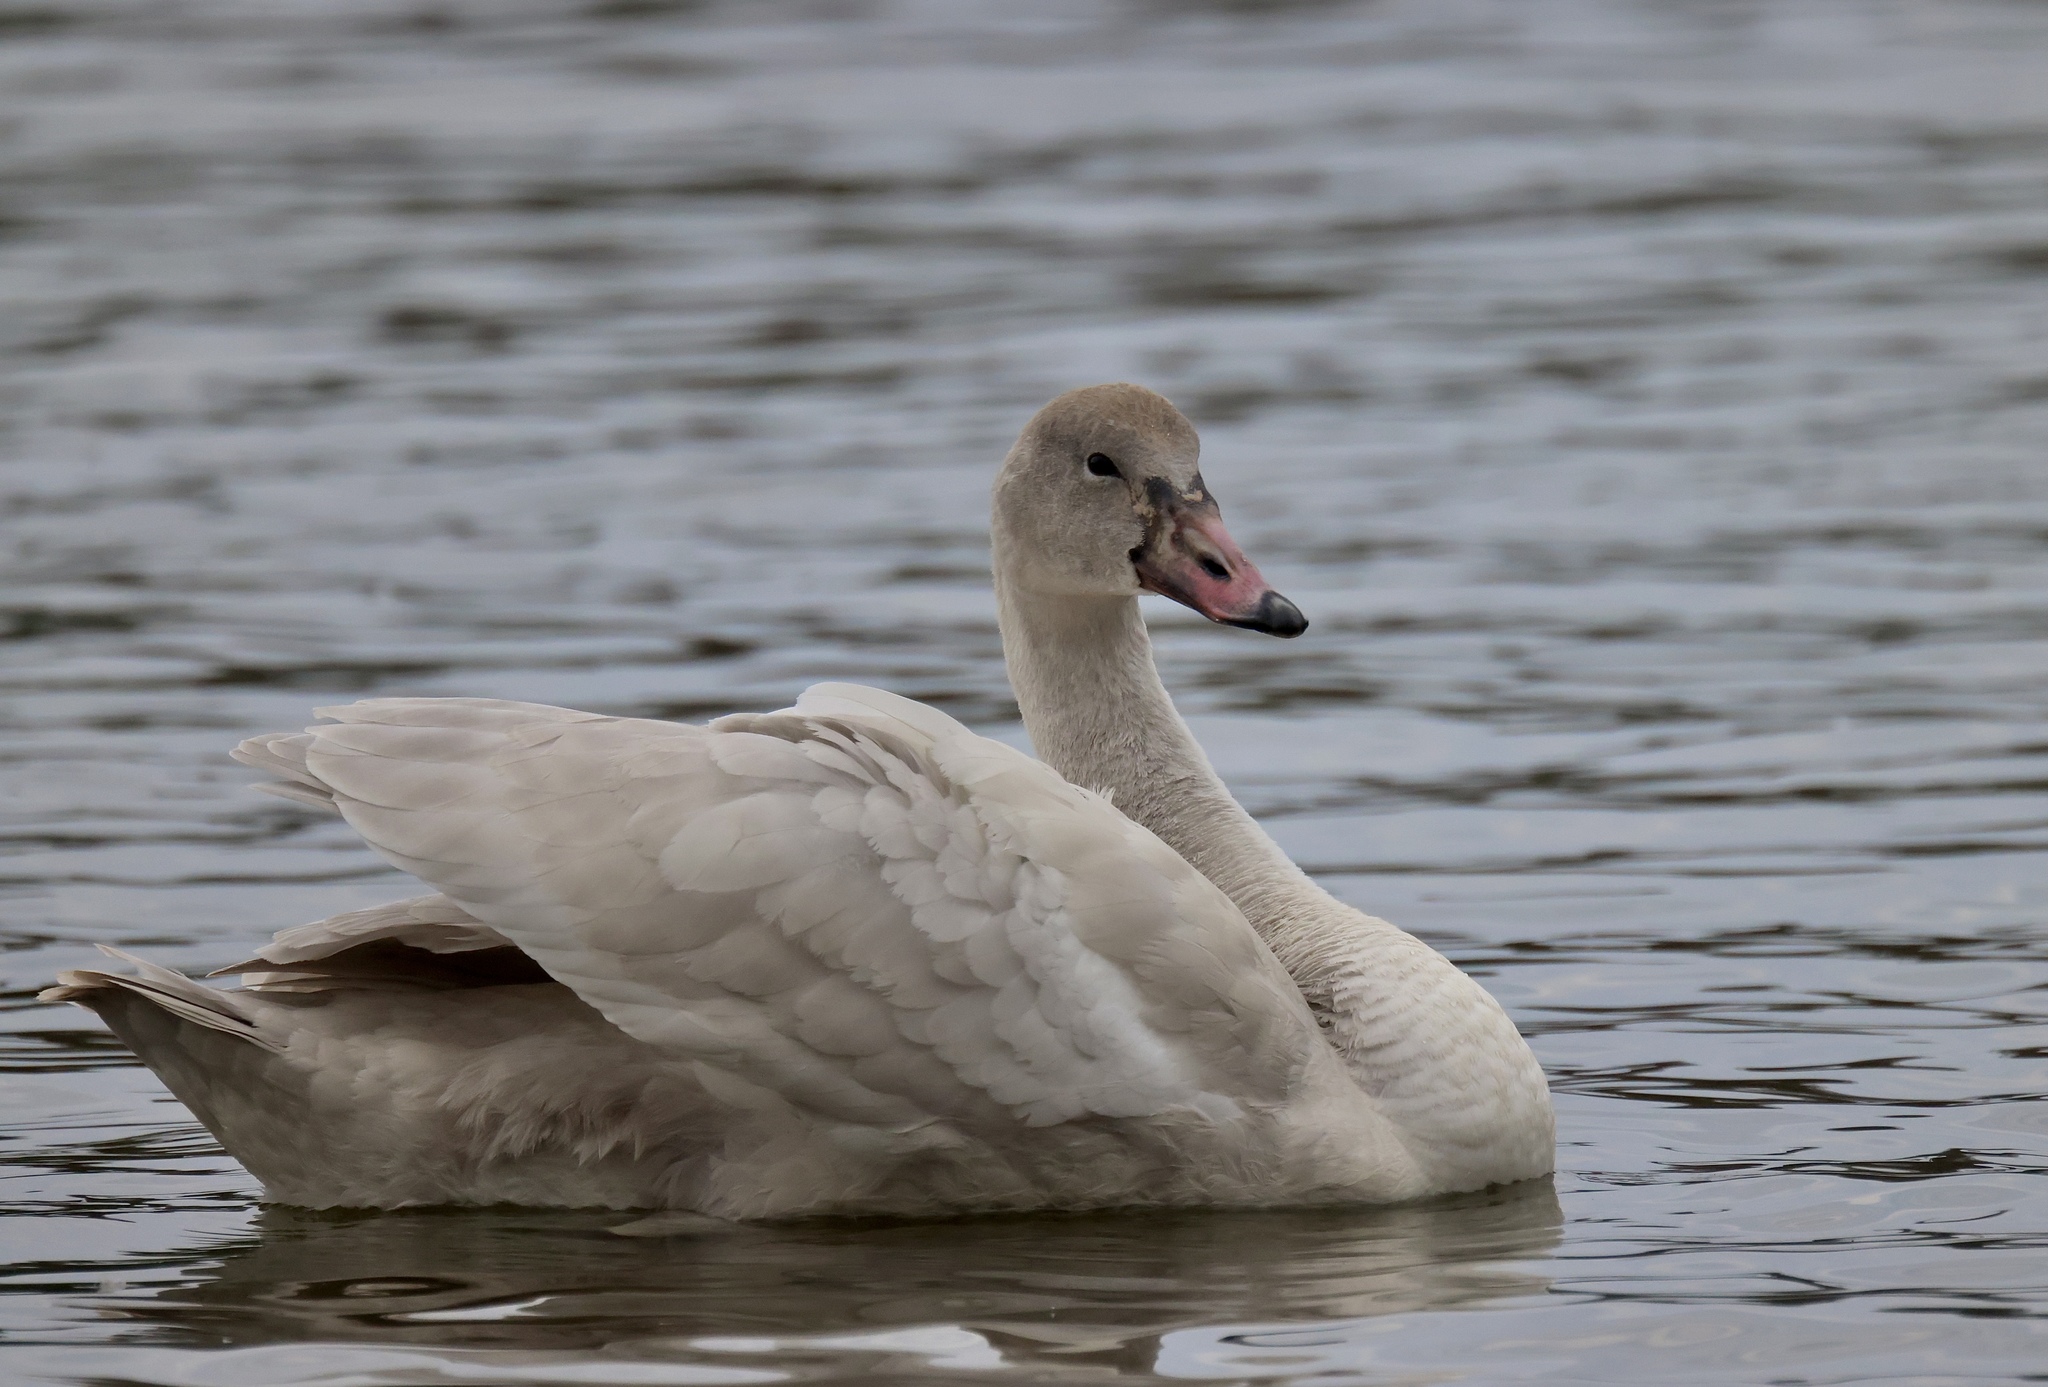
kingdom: Animalia
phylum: Chordata
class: Aves
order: Anseriformes
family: Anatidae
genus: Cygnus
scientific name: Cygnus columbianus
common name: Tundra swan
